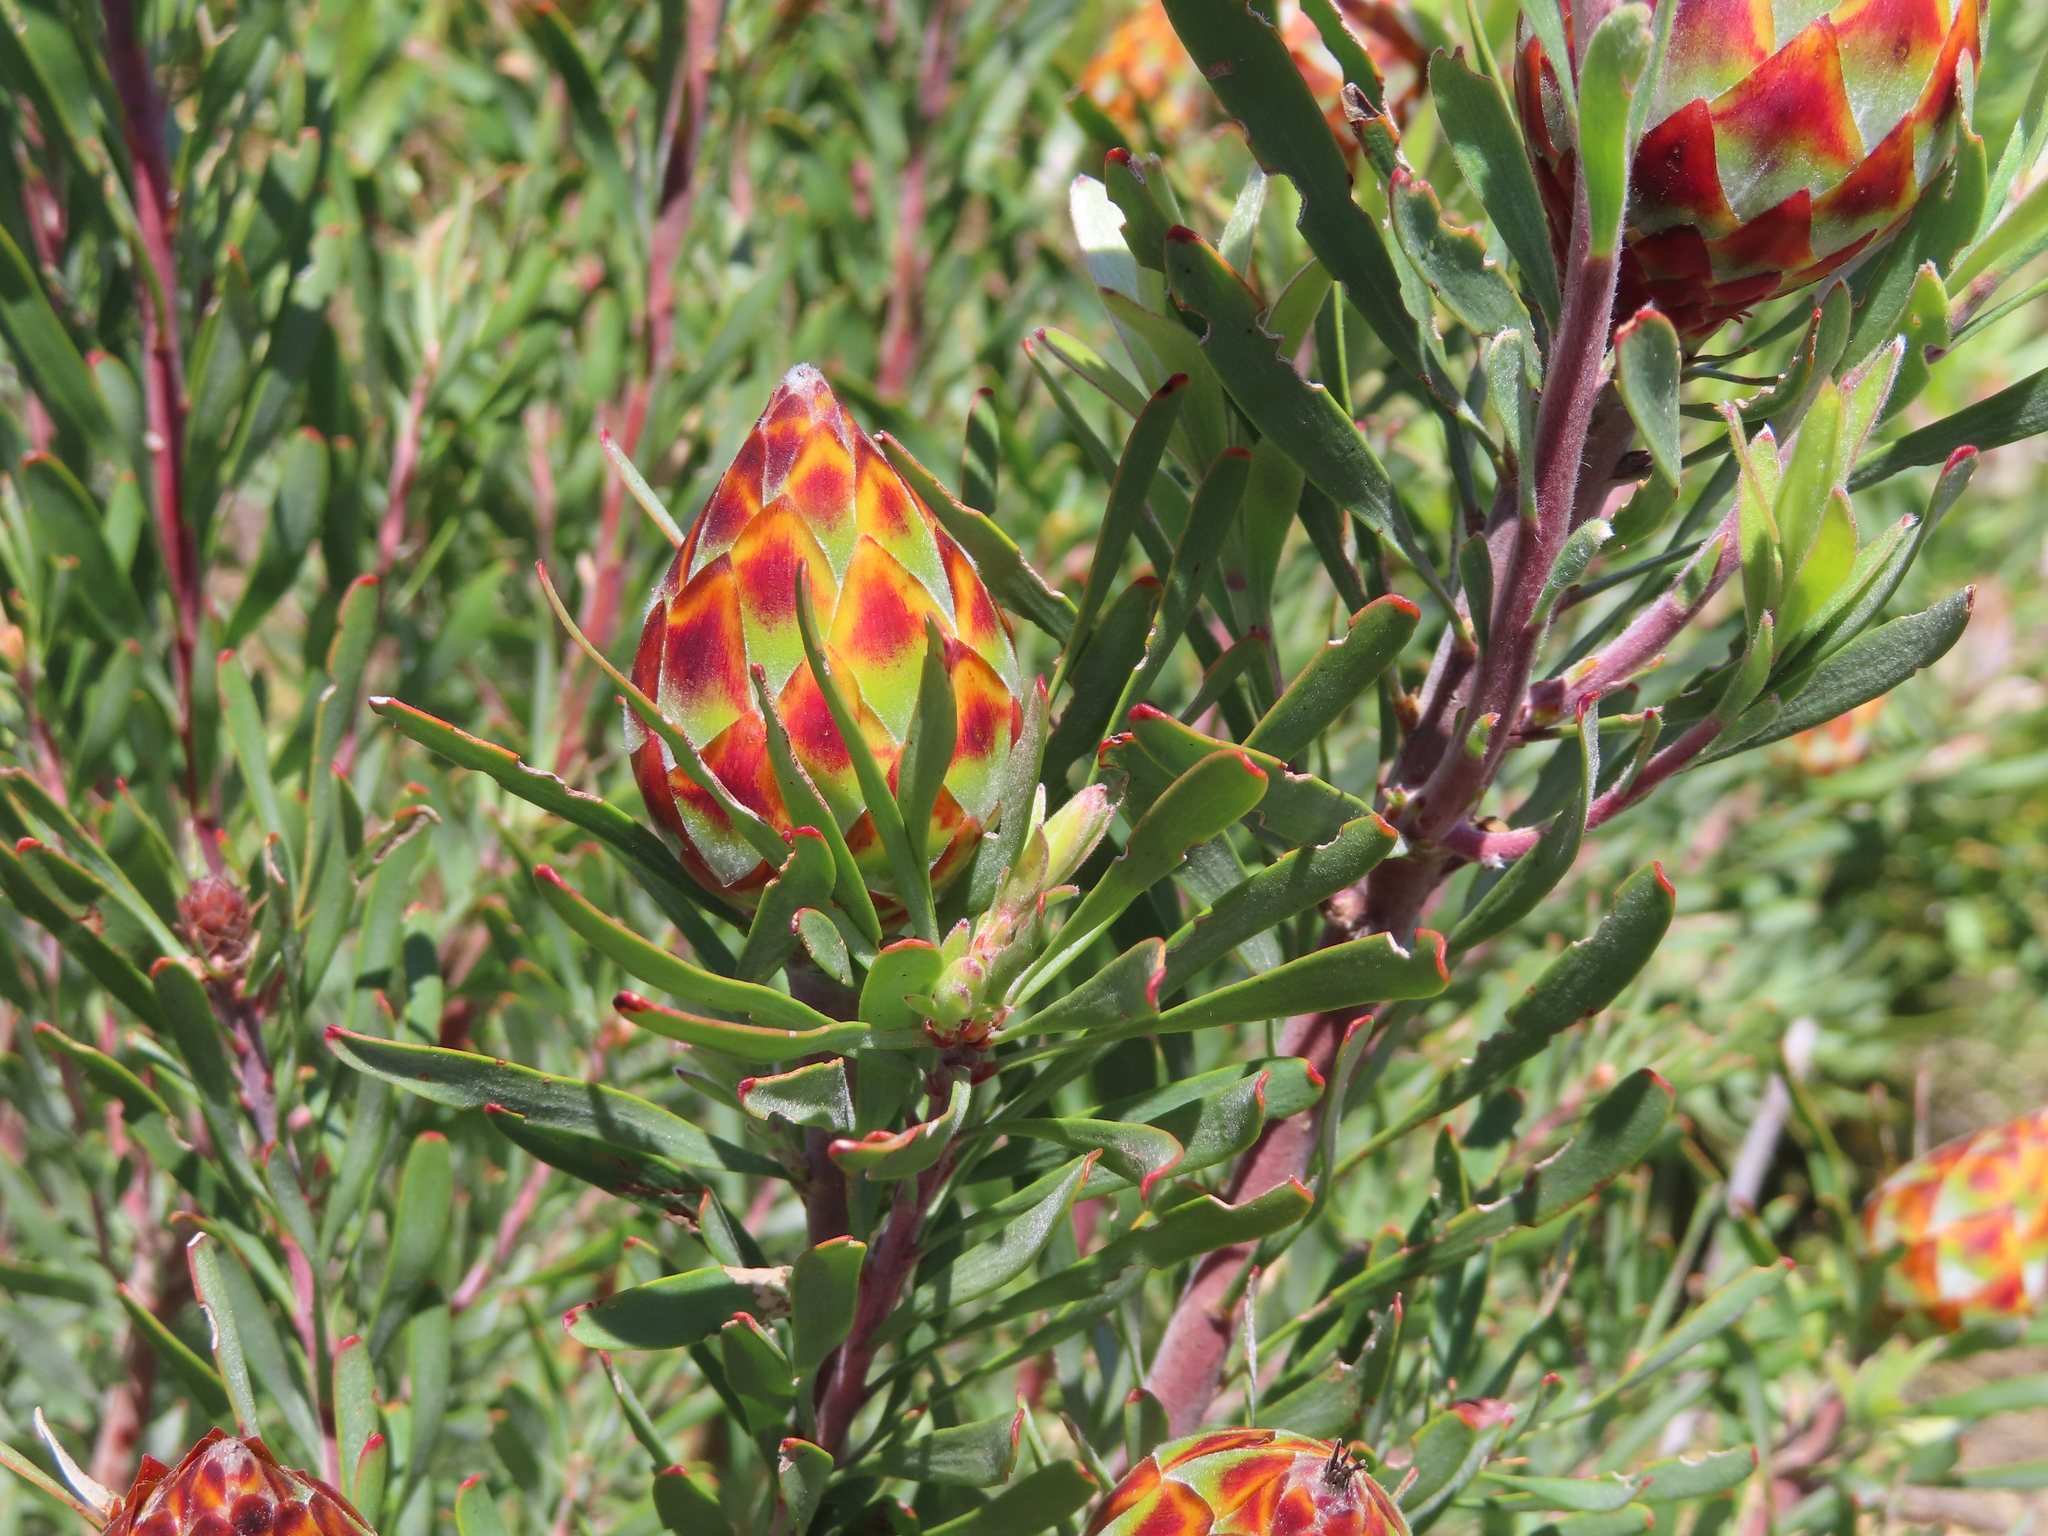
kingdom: Plantae
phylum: Tracheophyta
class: Magnoliopsida
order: Proteales
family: Proteaceae
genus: Leucadendron
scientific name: Leucadendron rubrum
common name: Spinning top
